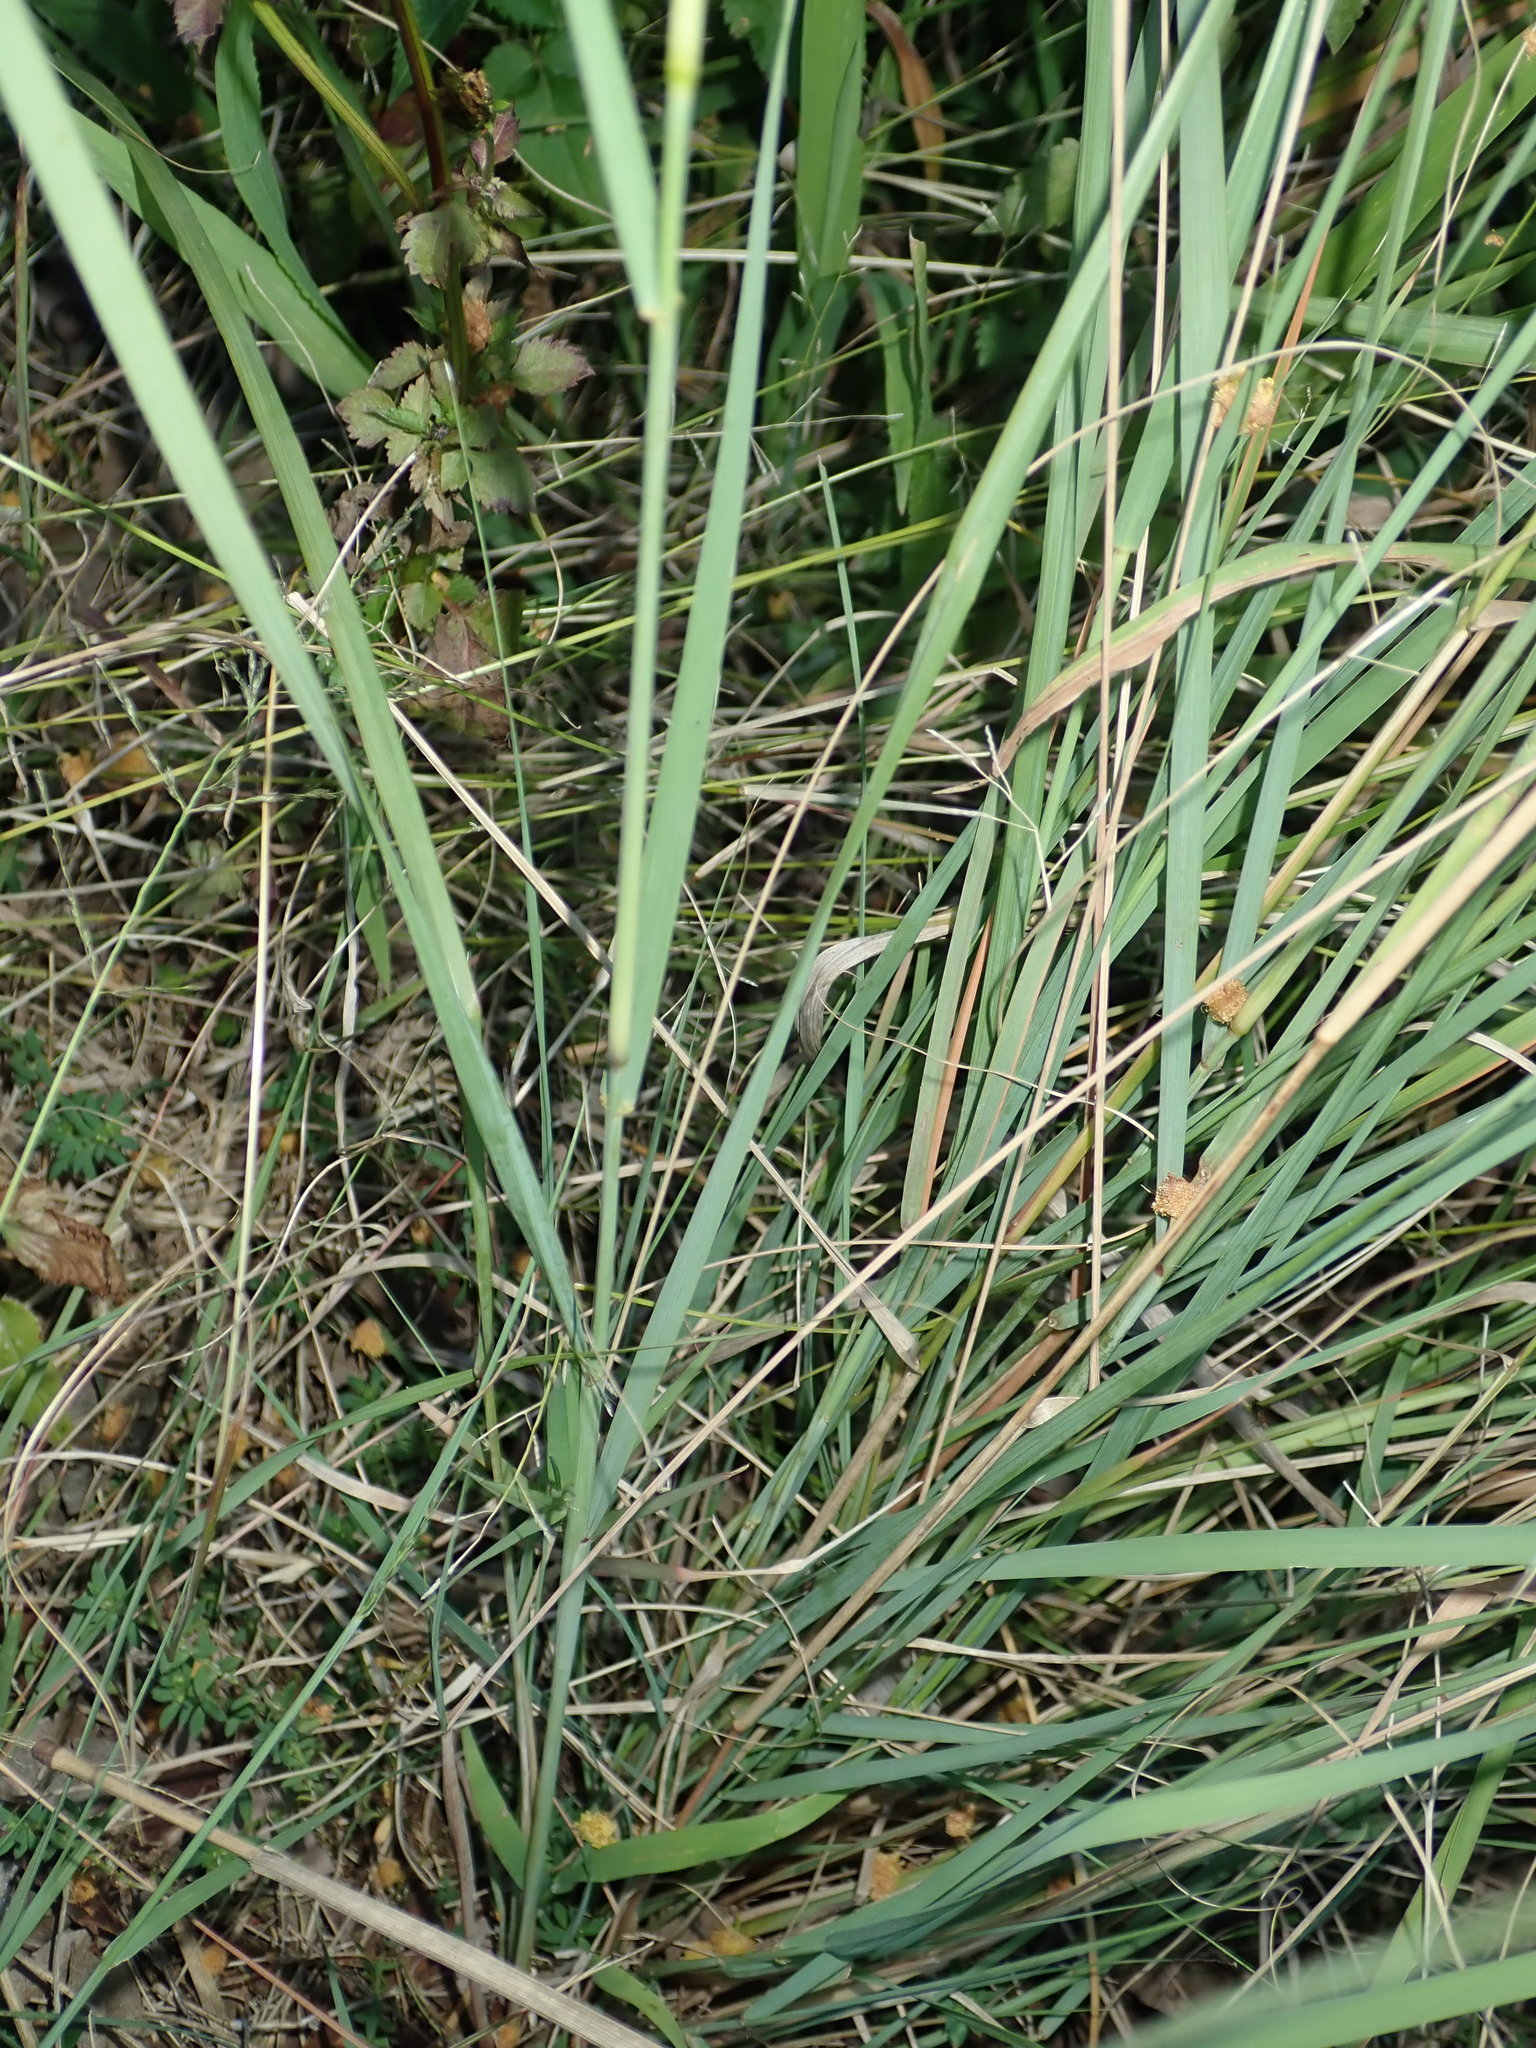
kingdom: Plantae
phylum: Tracheophyta
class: Liliopsida
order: Poales
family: Poaceae
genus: Eragrostis
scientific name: Eragrostis curvula
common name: African love-grass
